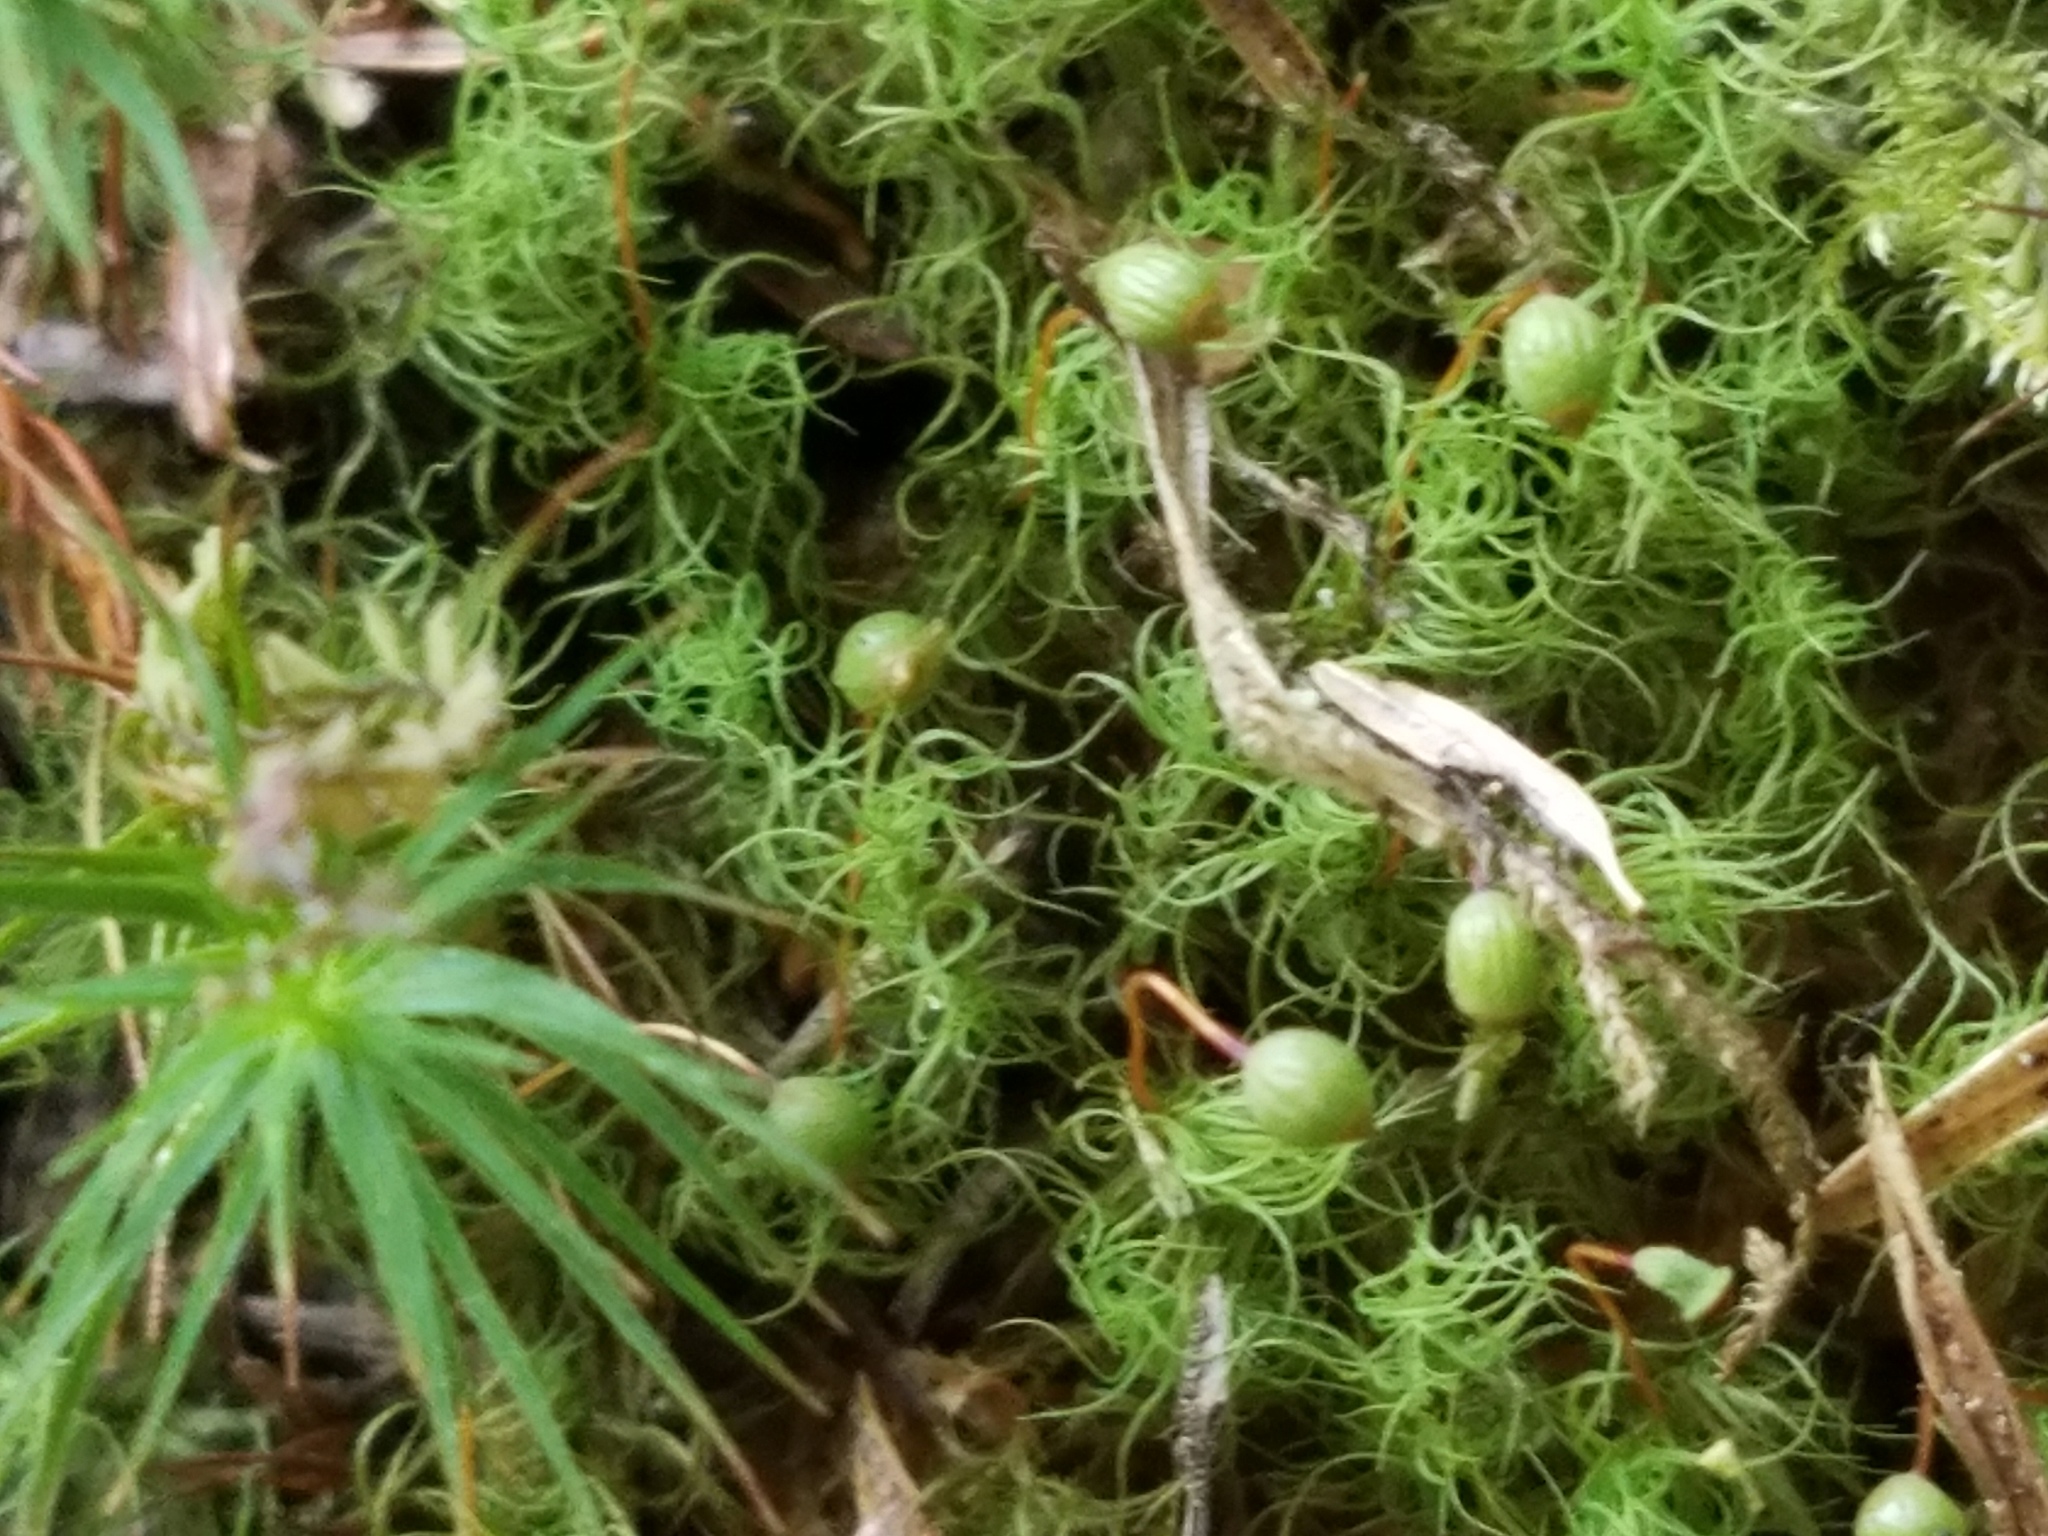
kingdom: Plantae
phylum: Bryophyta
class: Bryopsida
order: Bartramiales
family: Bartramiaceae
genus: Bartramia
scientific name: Bartramia ithyphylla
